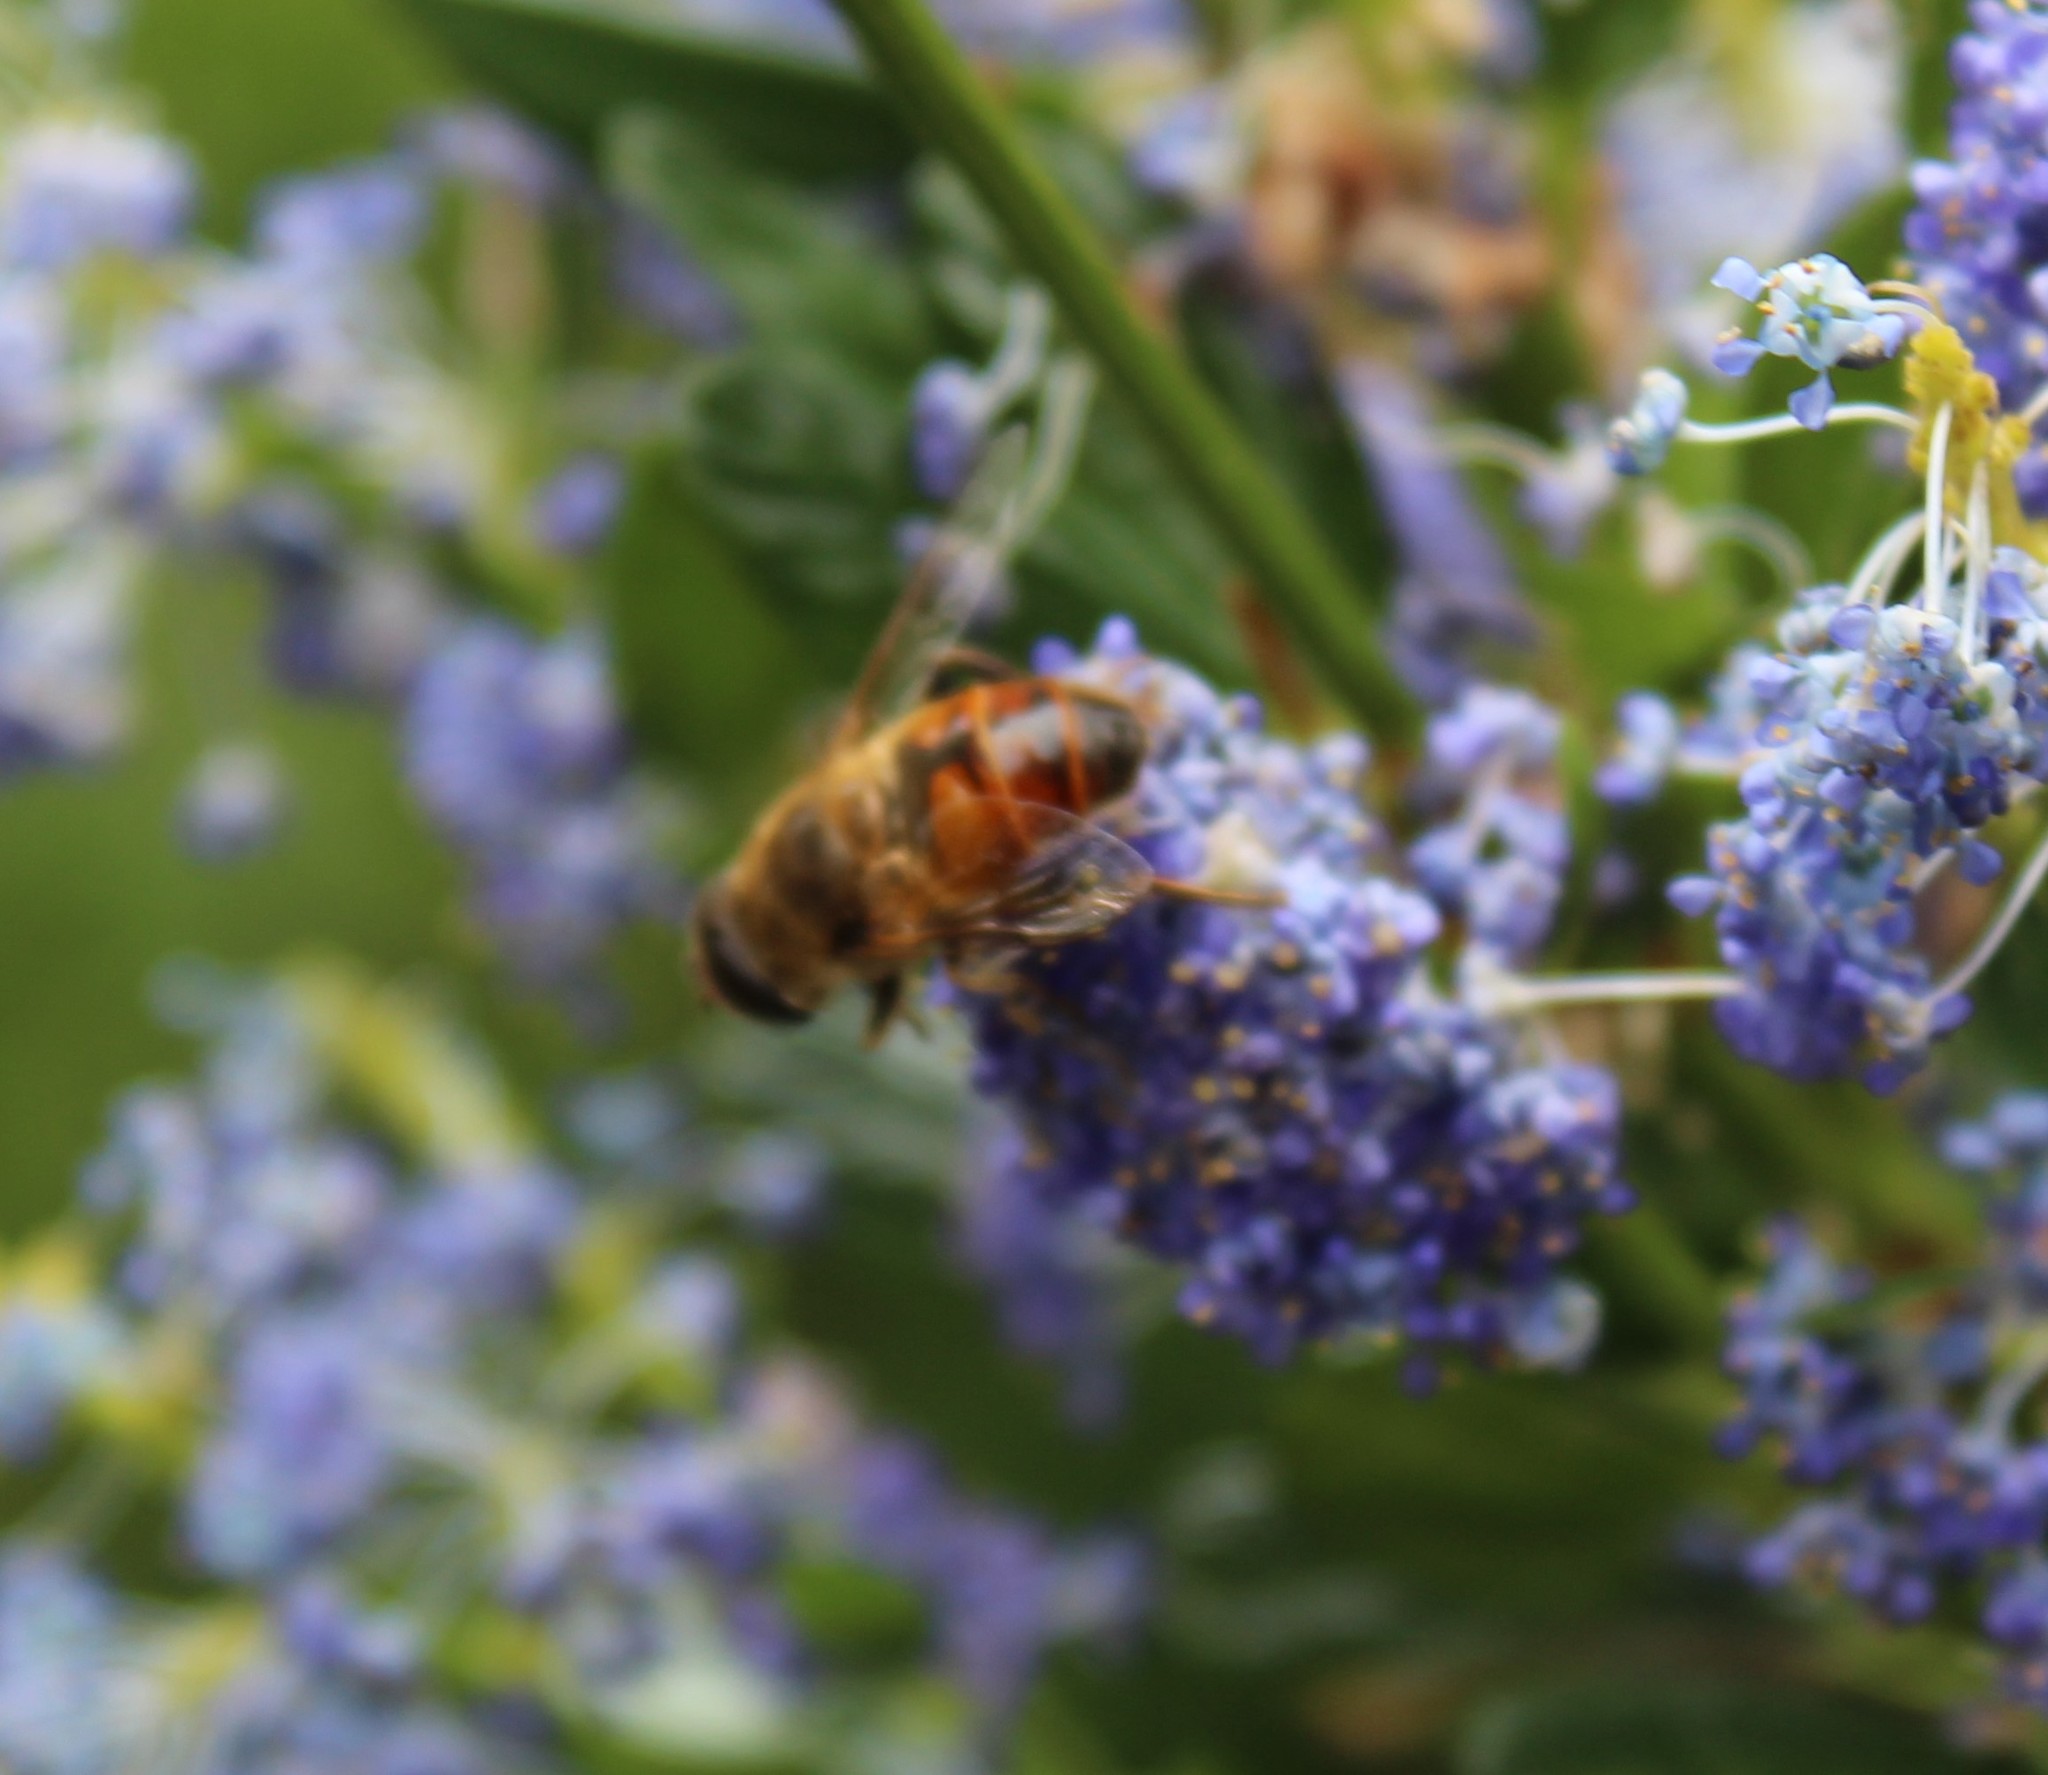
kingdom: Animalia
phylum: Arthropoda
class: Insecta
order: Diptera
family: Syrphidae
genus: Eristalis
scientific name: Eristalis tenax
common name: Drone fly
